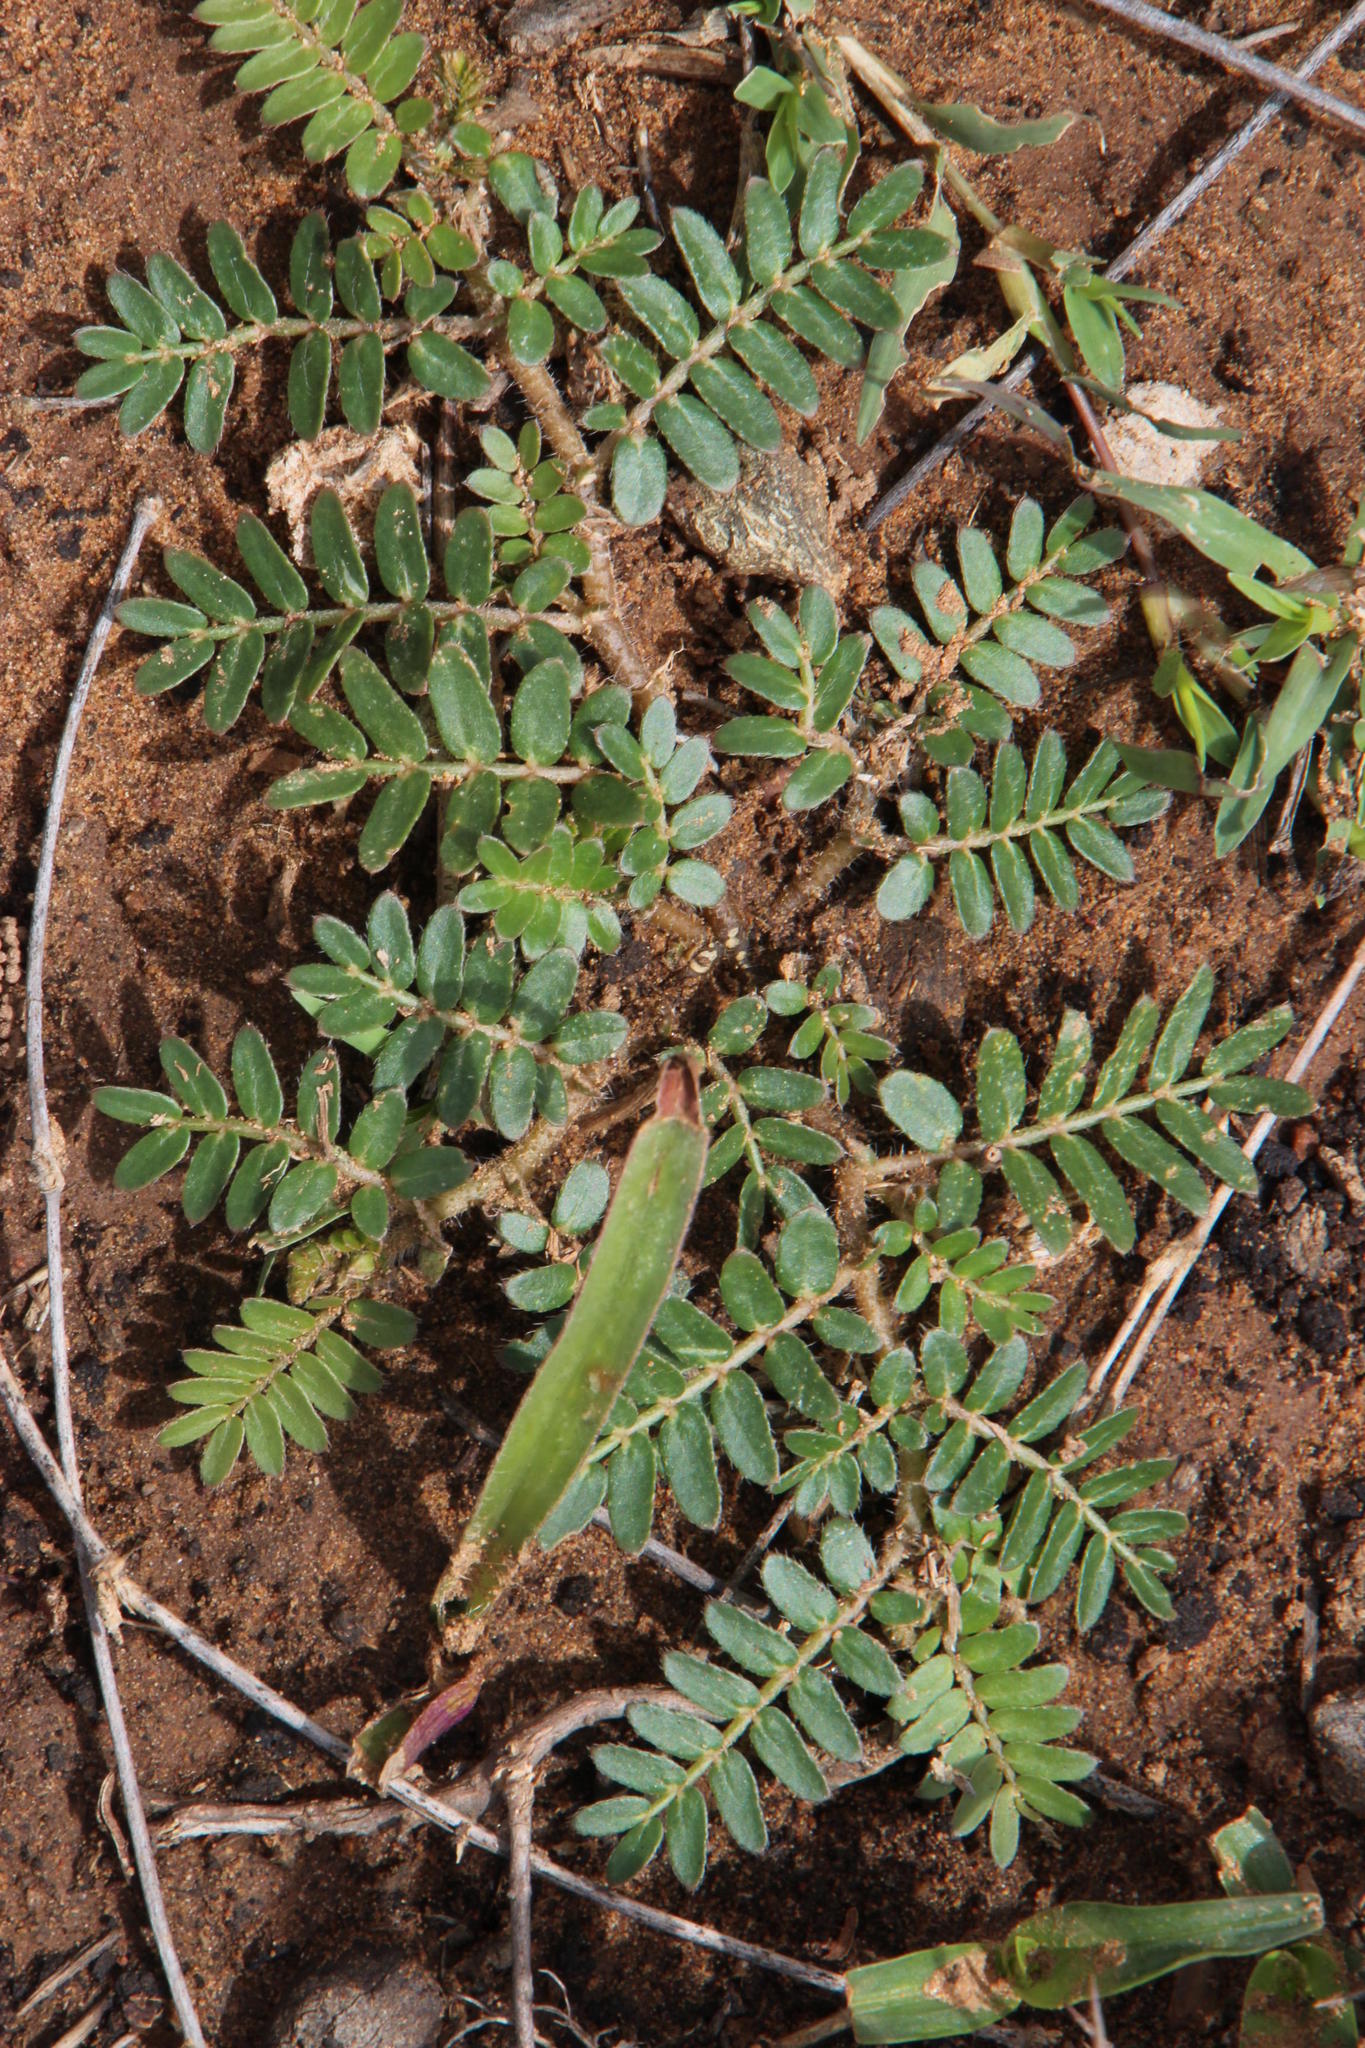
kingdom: Plantae
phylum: Tracheophyta
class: Magnoliopsida
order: Zygophyllales
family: Zygophyllaceae
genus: Tribulus
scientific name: Tribulus terrestris
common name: Puncturevine
